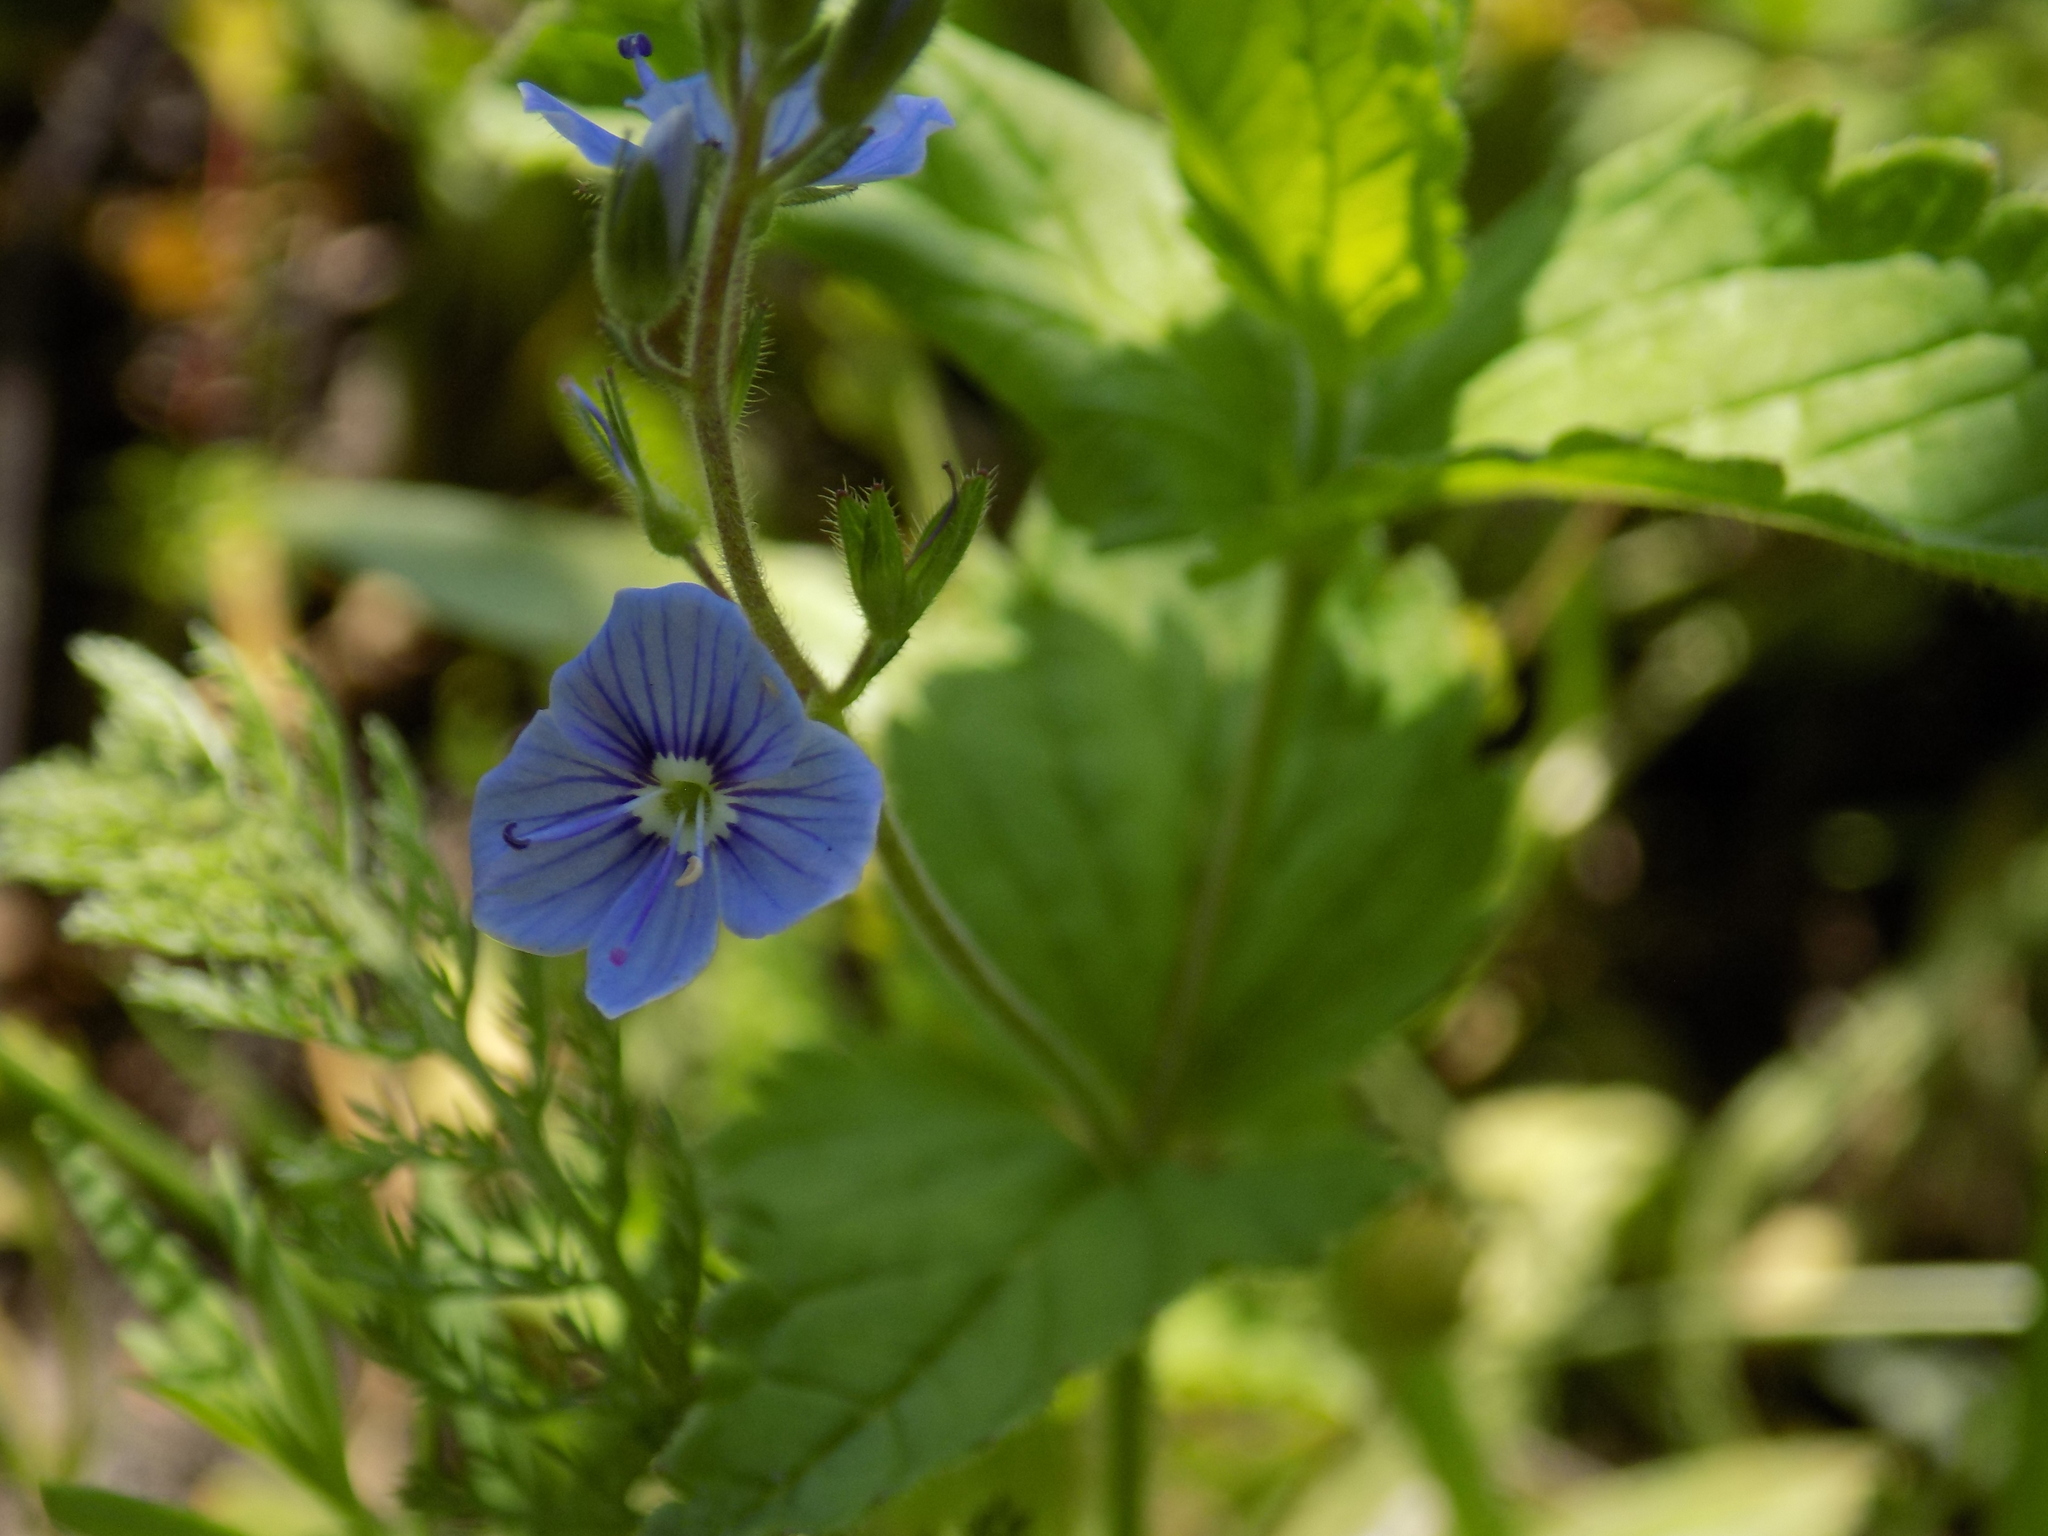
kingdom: Plantae
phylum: Tracheophyta
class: Magnoliopsida
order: Lamiales
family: Plantaginaceae
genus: Veronica
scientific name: Veronica chamaedrys
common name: Germander speedwell
